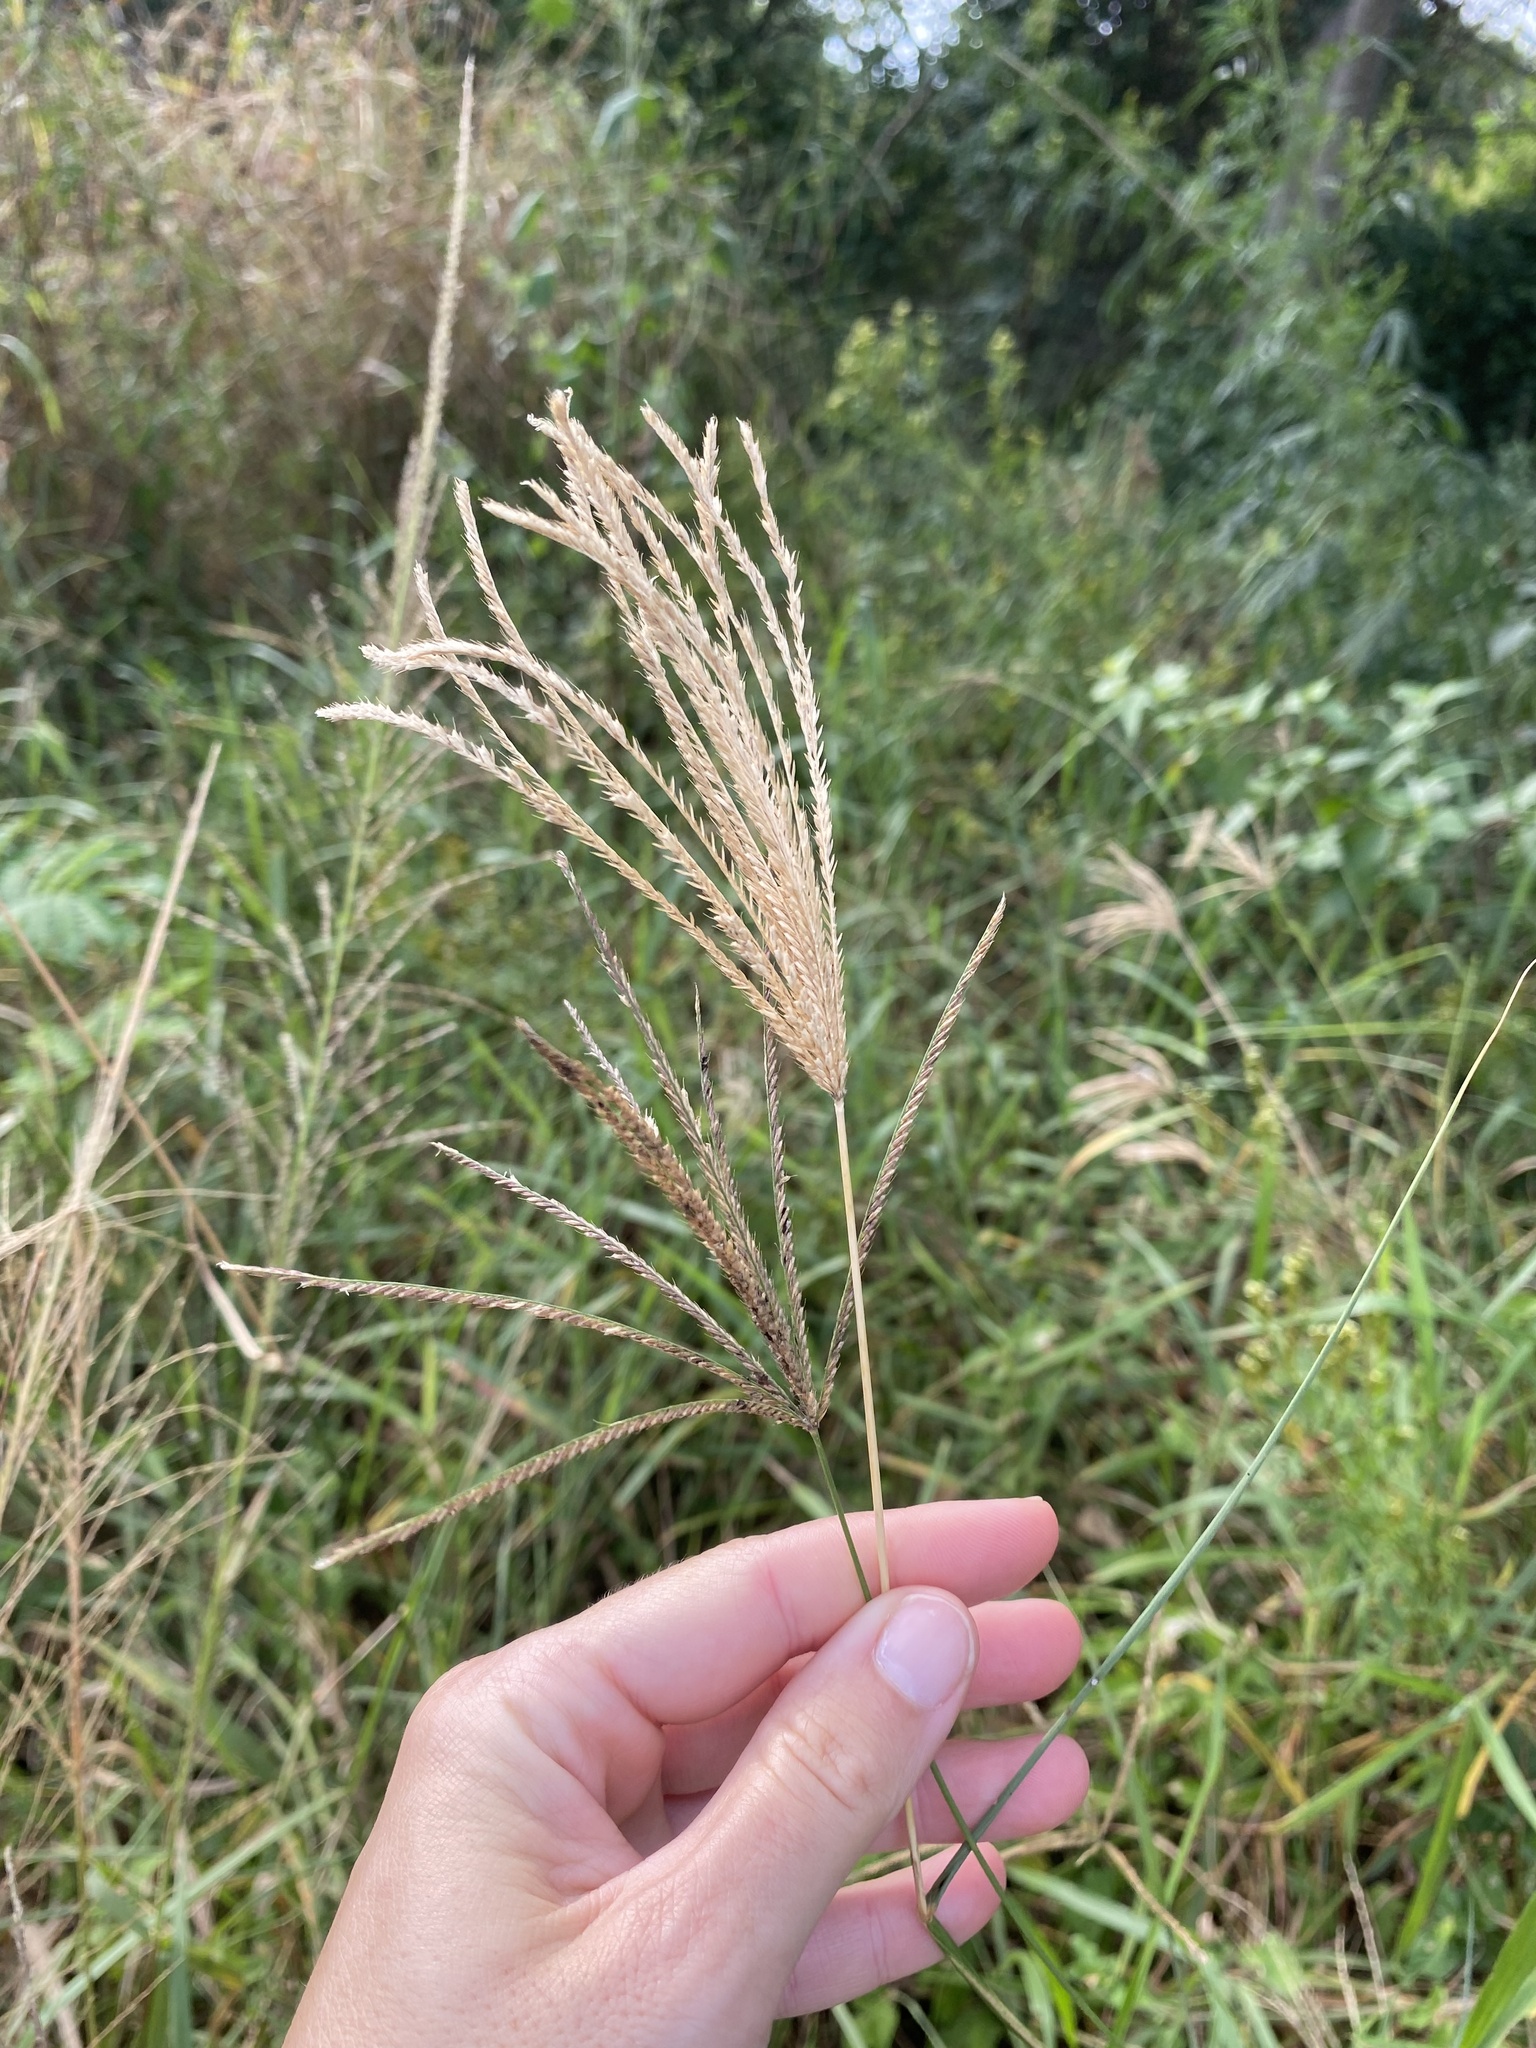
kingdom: Plantae
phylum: Tracheophyta
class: Liliopsida
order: Poales
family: Poaceae
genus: Chloris
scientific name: Chloris gayana
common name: Rhodes grass
